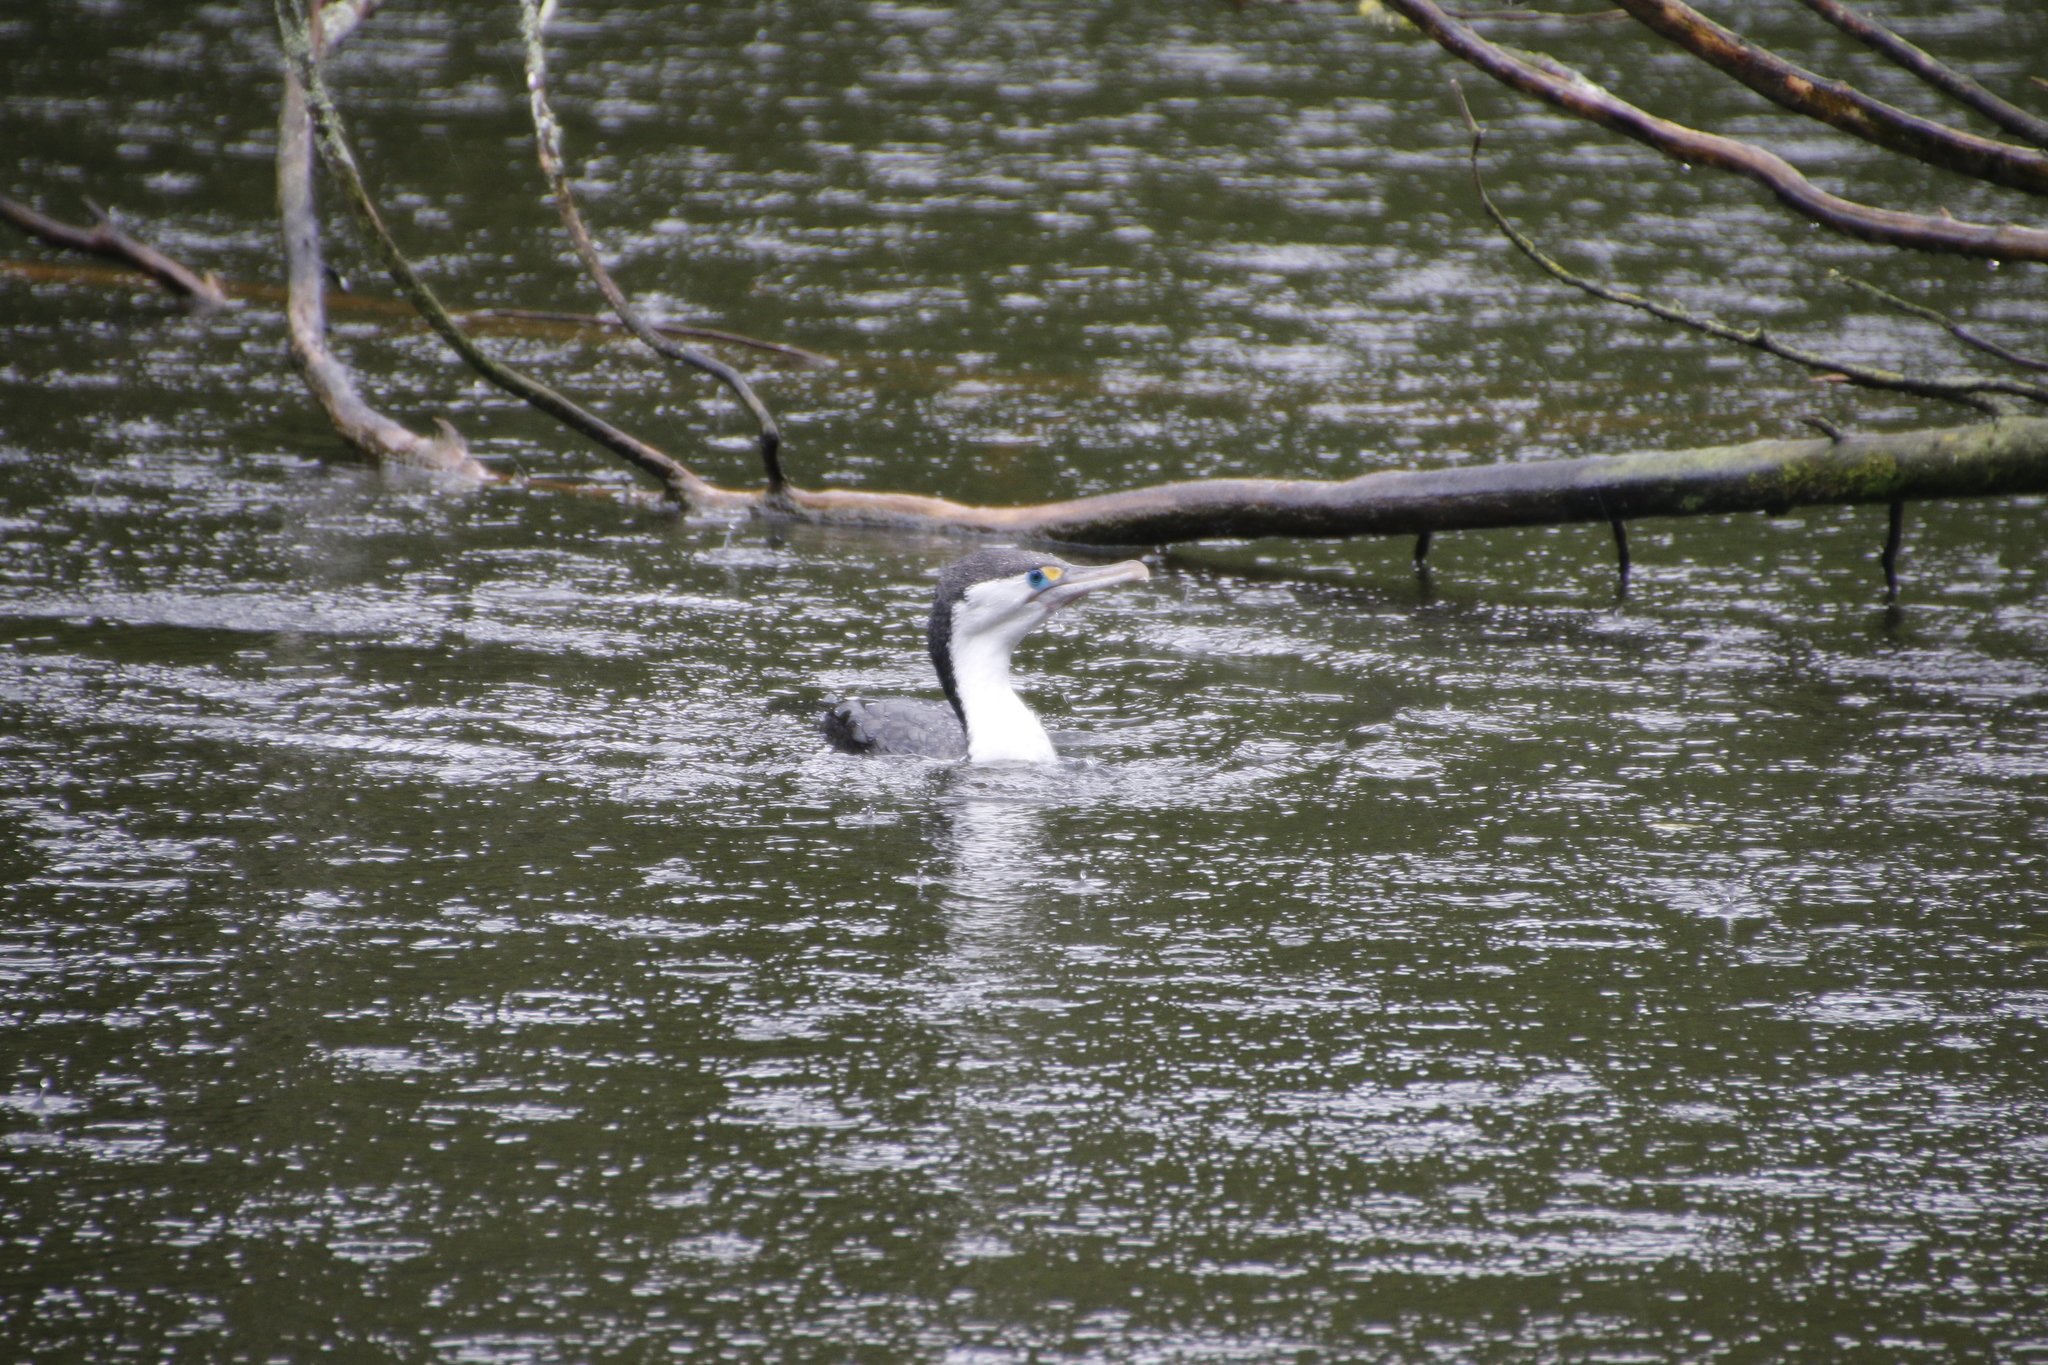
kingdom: Animalia
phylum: Chordata
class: Aves
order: Suliformes
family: Phalacrocoracidae
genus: Phalacrocorax
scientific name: Phalacrocorax varius
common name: Pied cormorant
